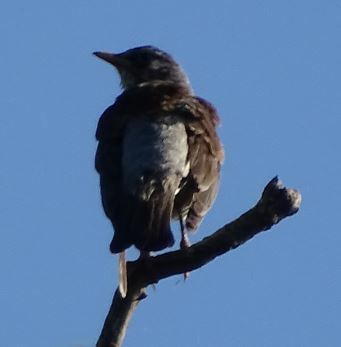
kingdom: Animalia
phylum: Chordata
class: Aves
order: Passeriformes
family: Turdidae
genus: Turdus
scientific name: Turdus pilaris
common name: Fieldfare
